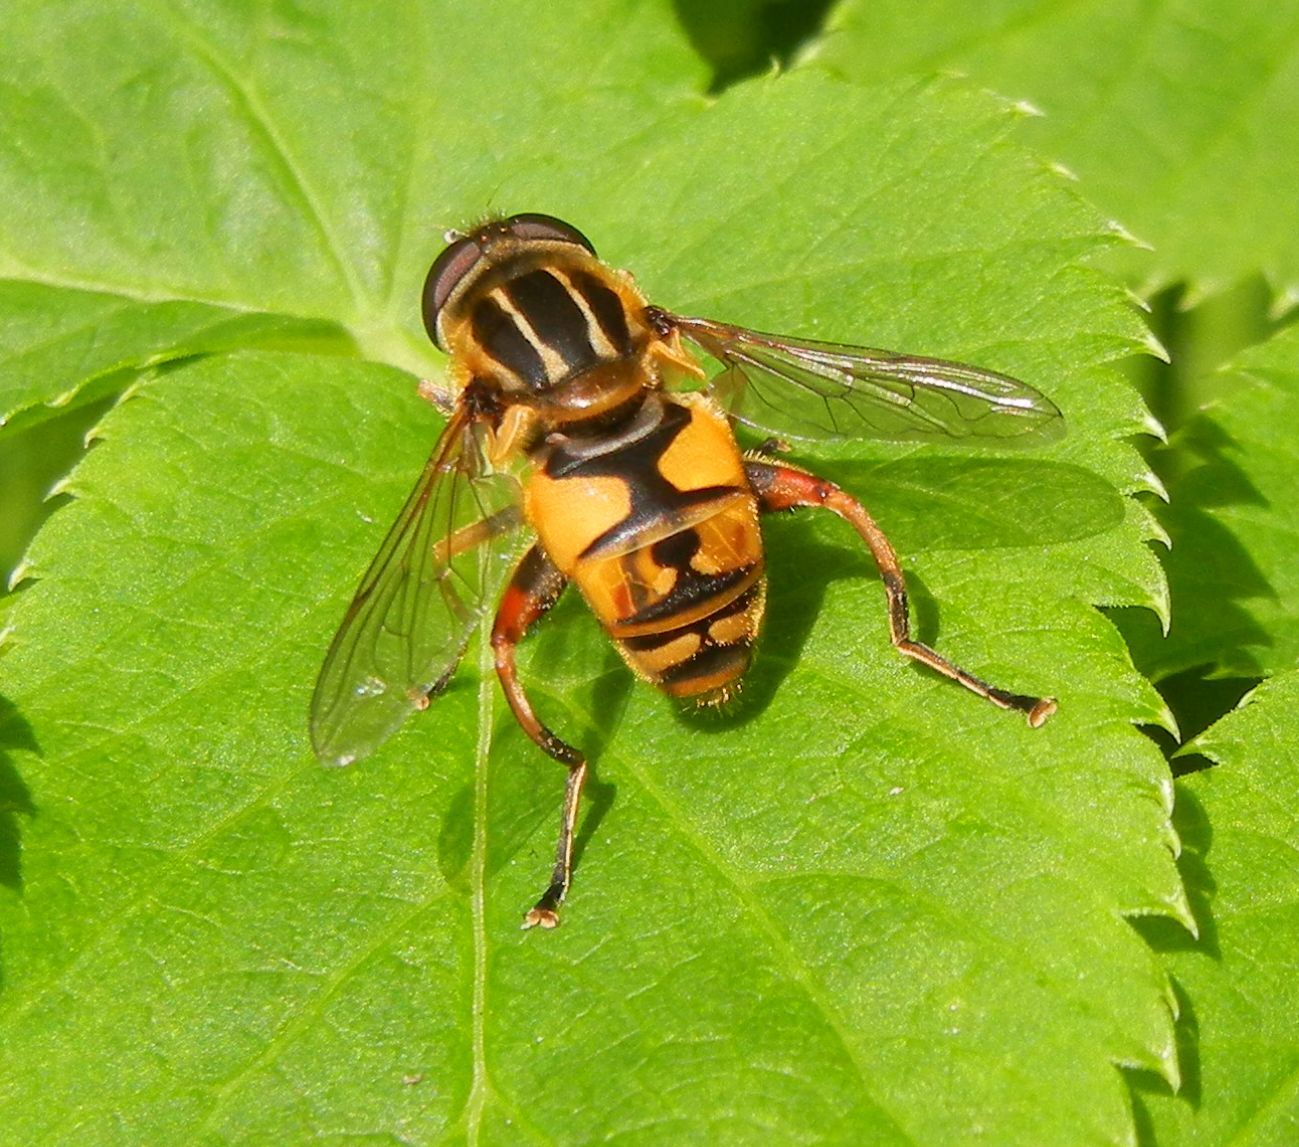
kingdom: Animalia
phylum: Arthropoda
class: Insecta
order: Diptera
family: Syrphidae
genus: Helophilus
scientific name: Helophilus pendulus
